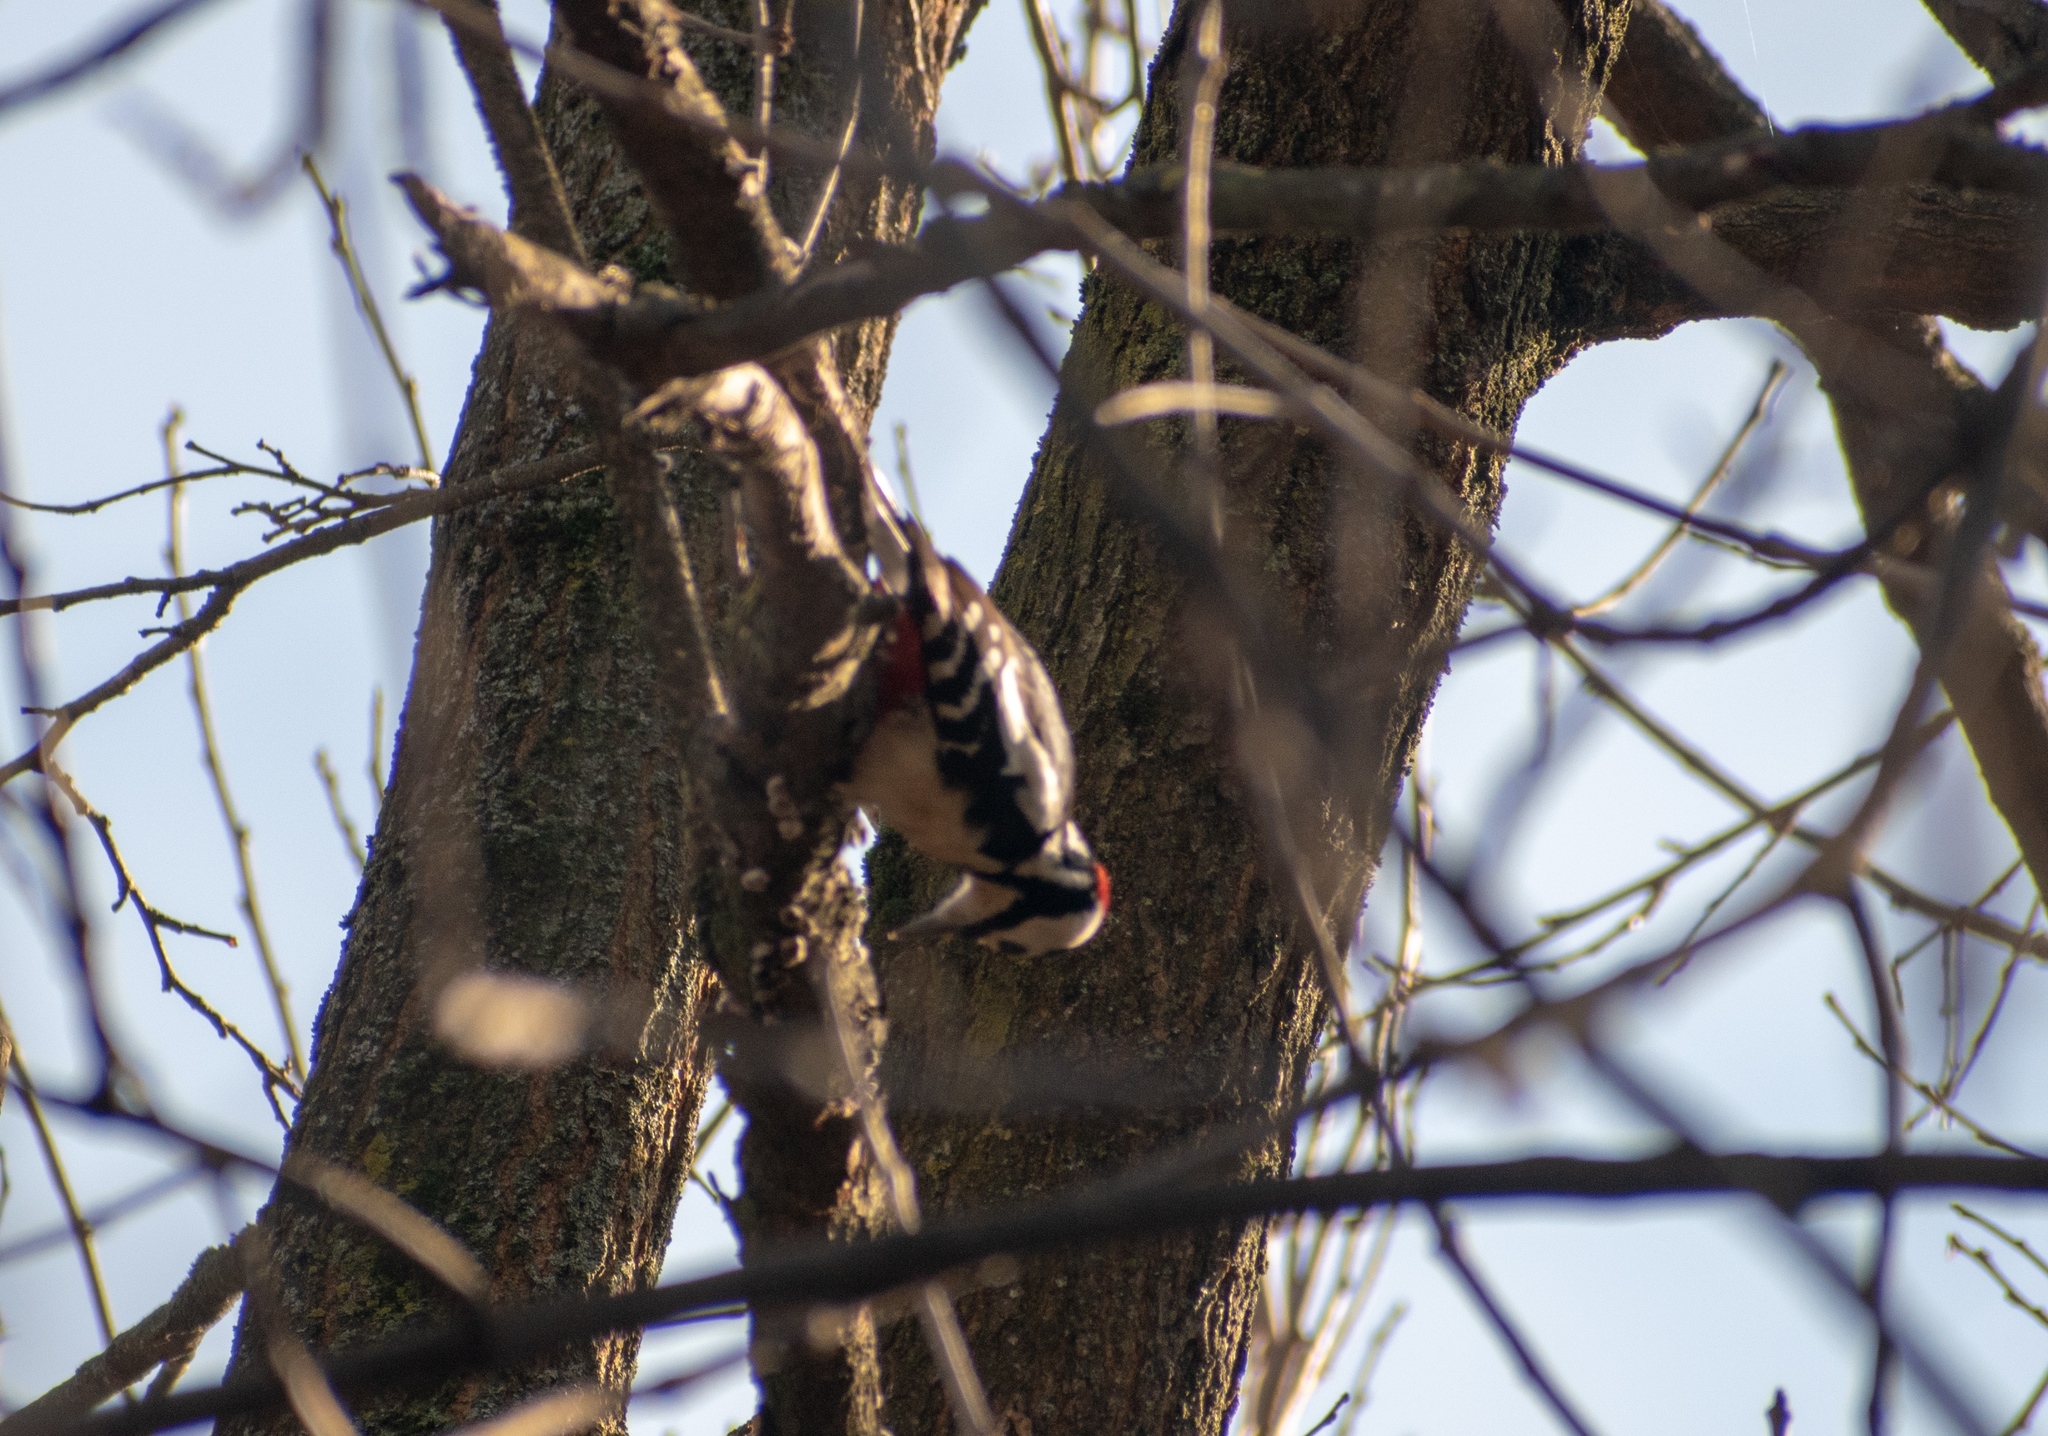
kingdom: Animalia
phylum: Chordata
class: Aves
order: Piciformes
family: Picidae
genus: Dendrocopos
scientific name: Dendrocopos major
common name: Great spotted woodpecker
